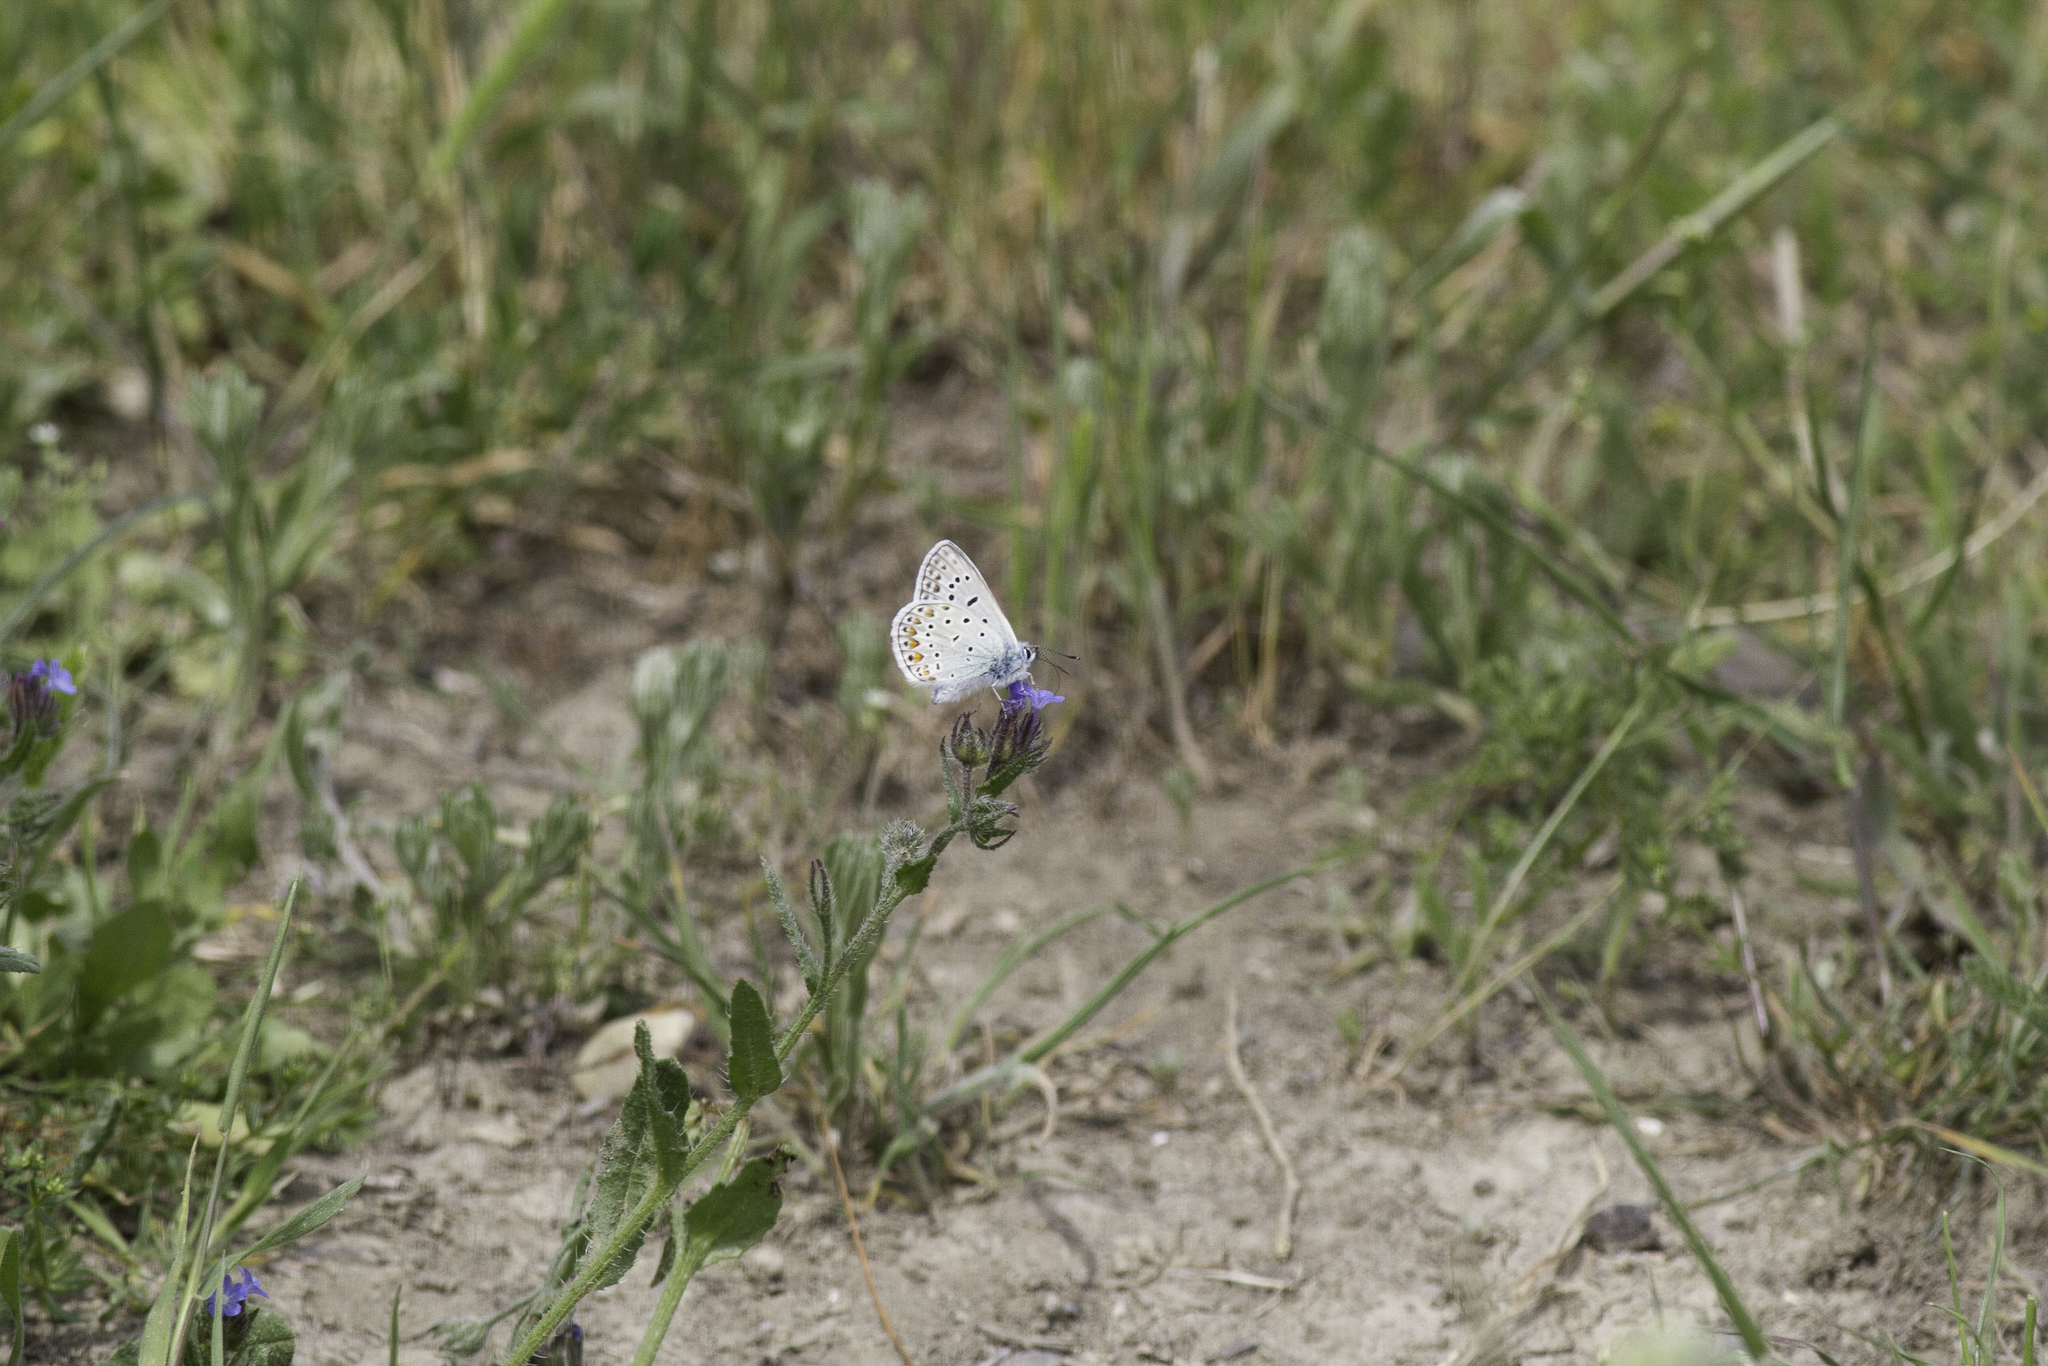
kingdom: Animalia
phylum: Arthropoda
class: Insecta
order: Lepidoptera
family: Lycaenidae
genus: Polyommatus
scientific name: Polyommatus icarus
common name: Common blue
